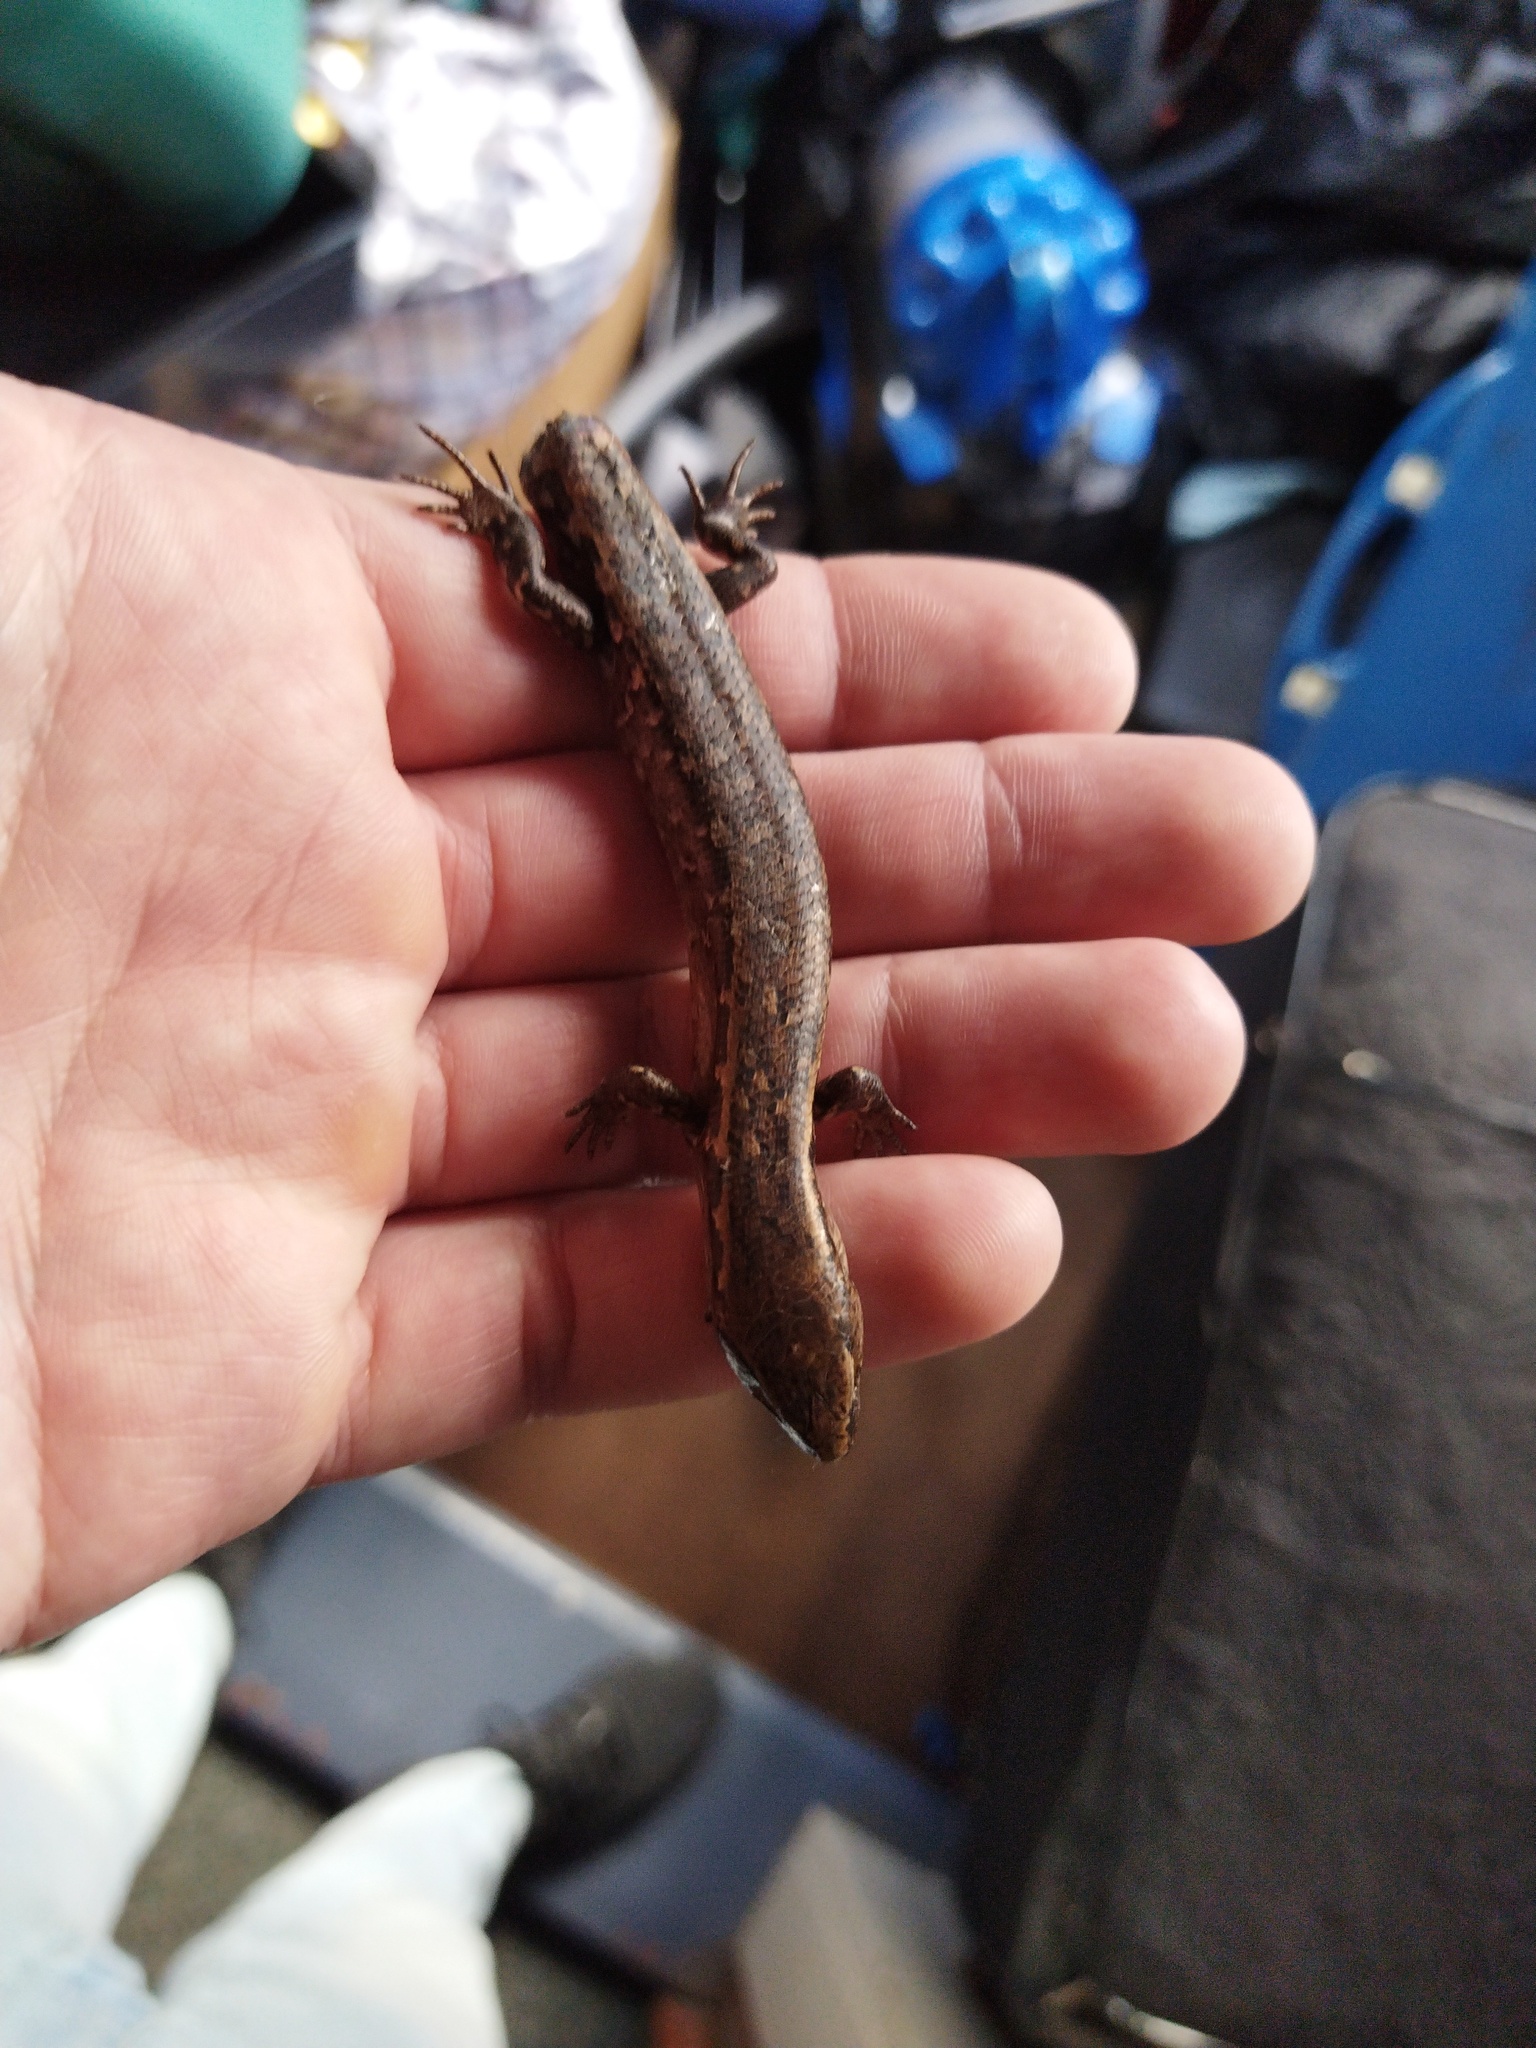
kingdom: Animalia
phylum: Chordata
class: Squamata
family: Scincidae
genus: Oligosoma
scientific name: Oligosoma ornatum
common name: Gray's ornate skink
